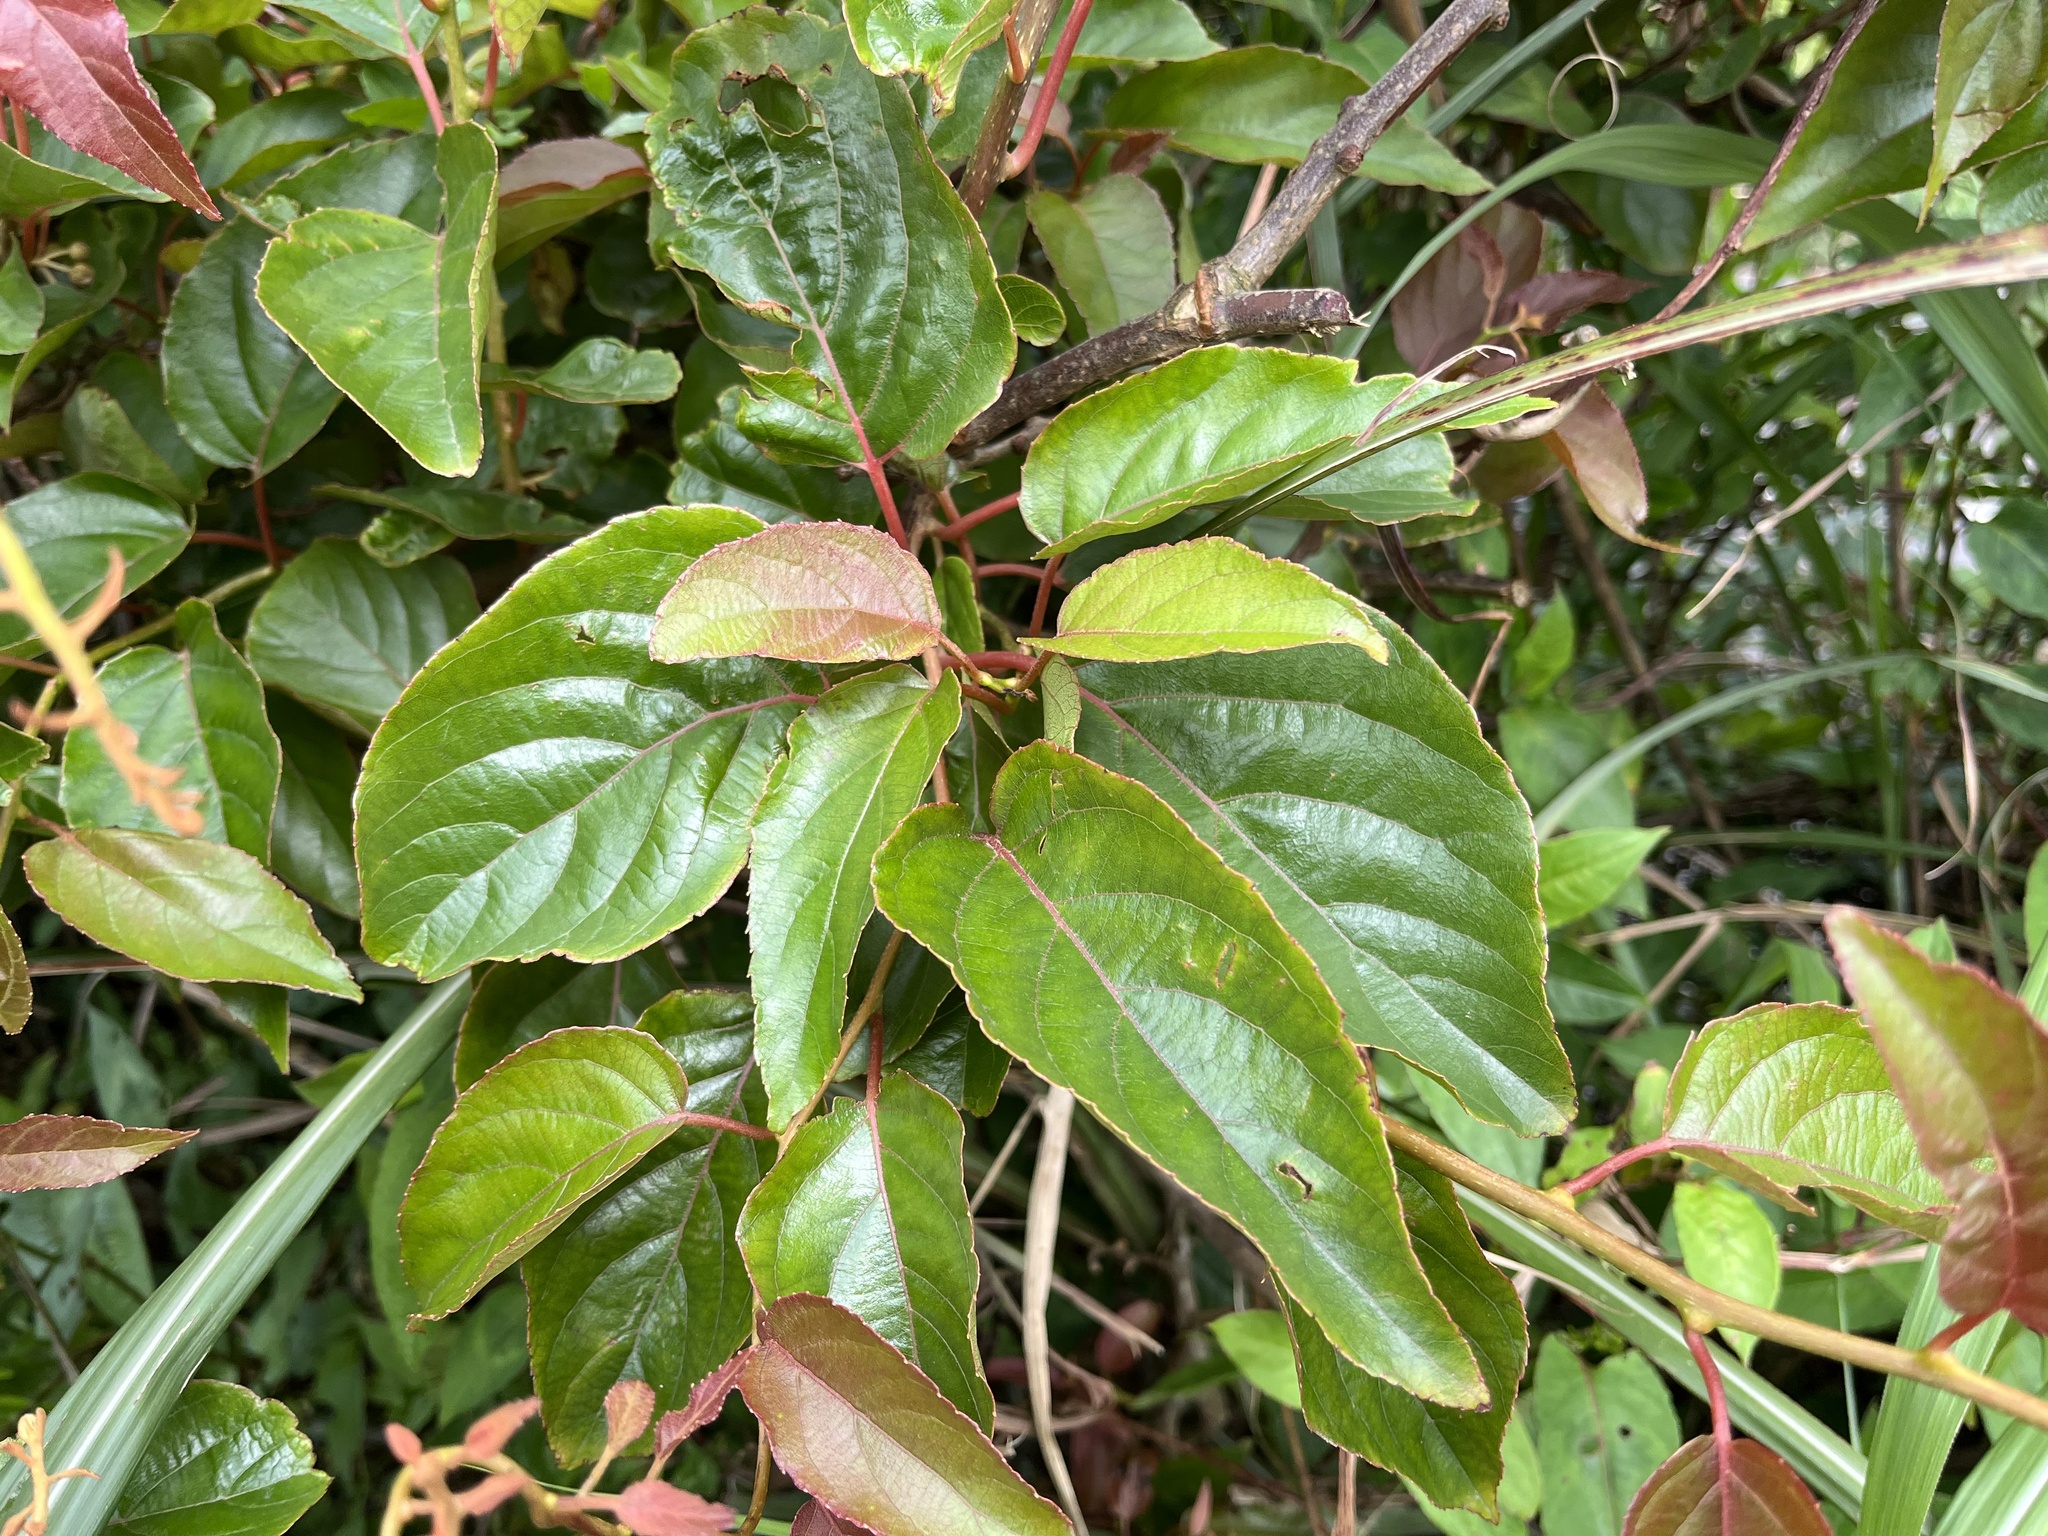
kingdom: Plantae
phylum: Tracheophyta
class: Magnoliopsida
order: Ericales
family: Actinidiaceae
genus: Actinidia
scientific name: Actinidia rufa
